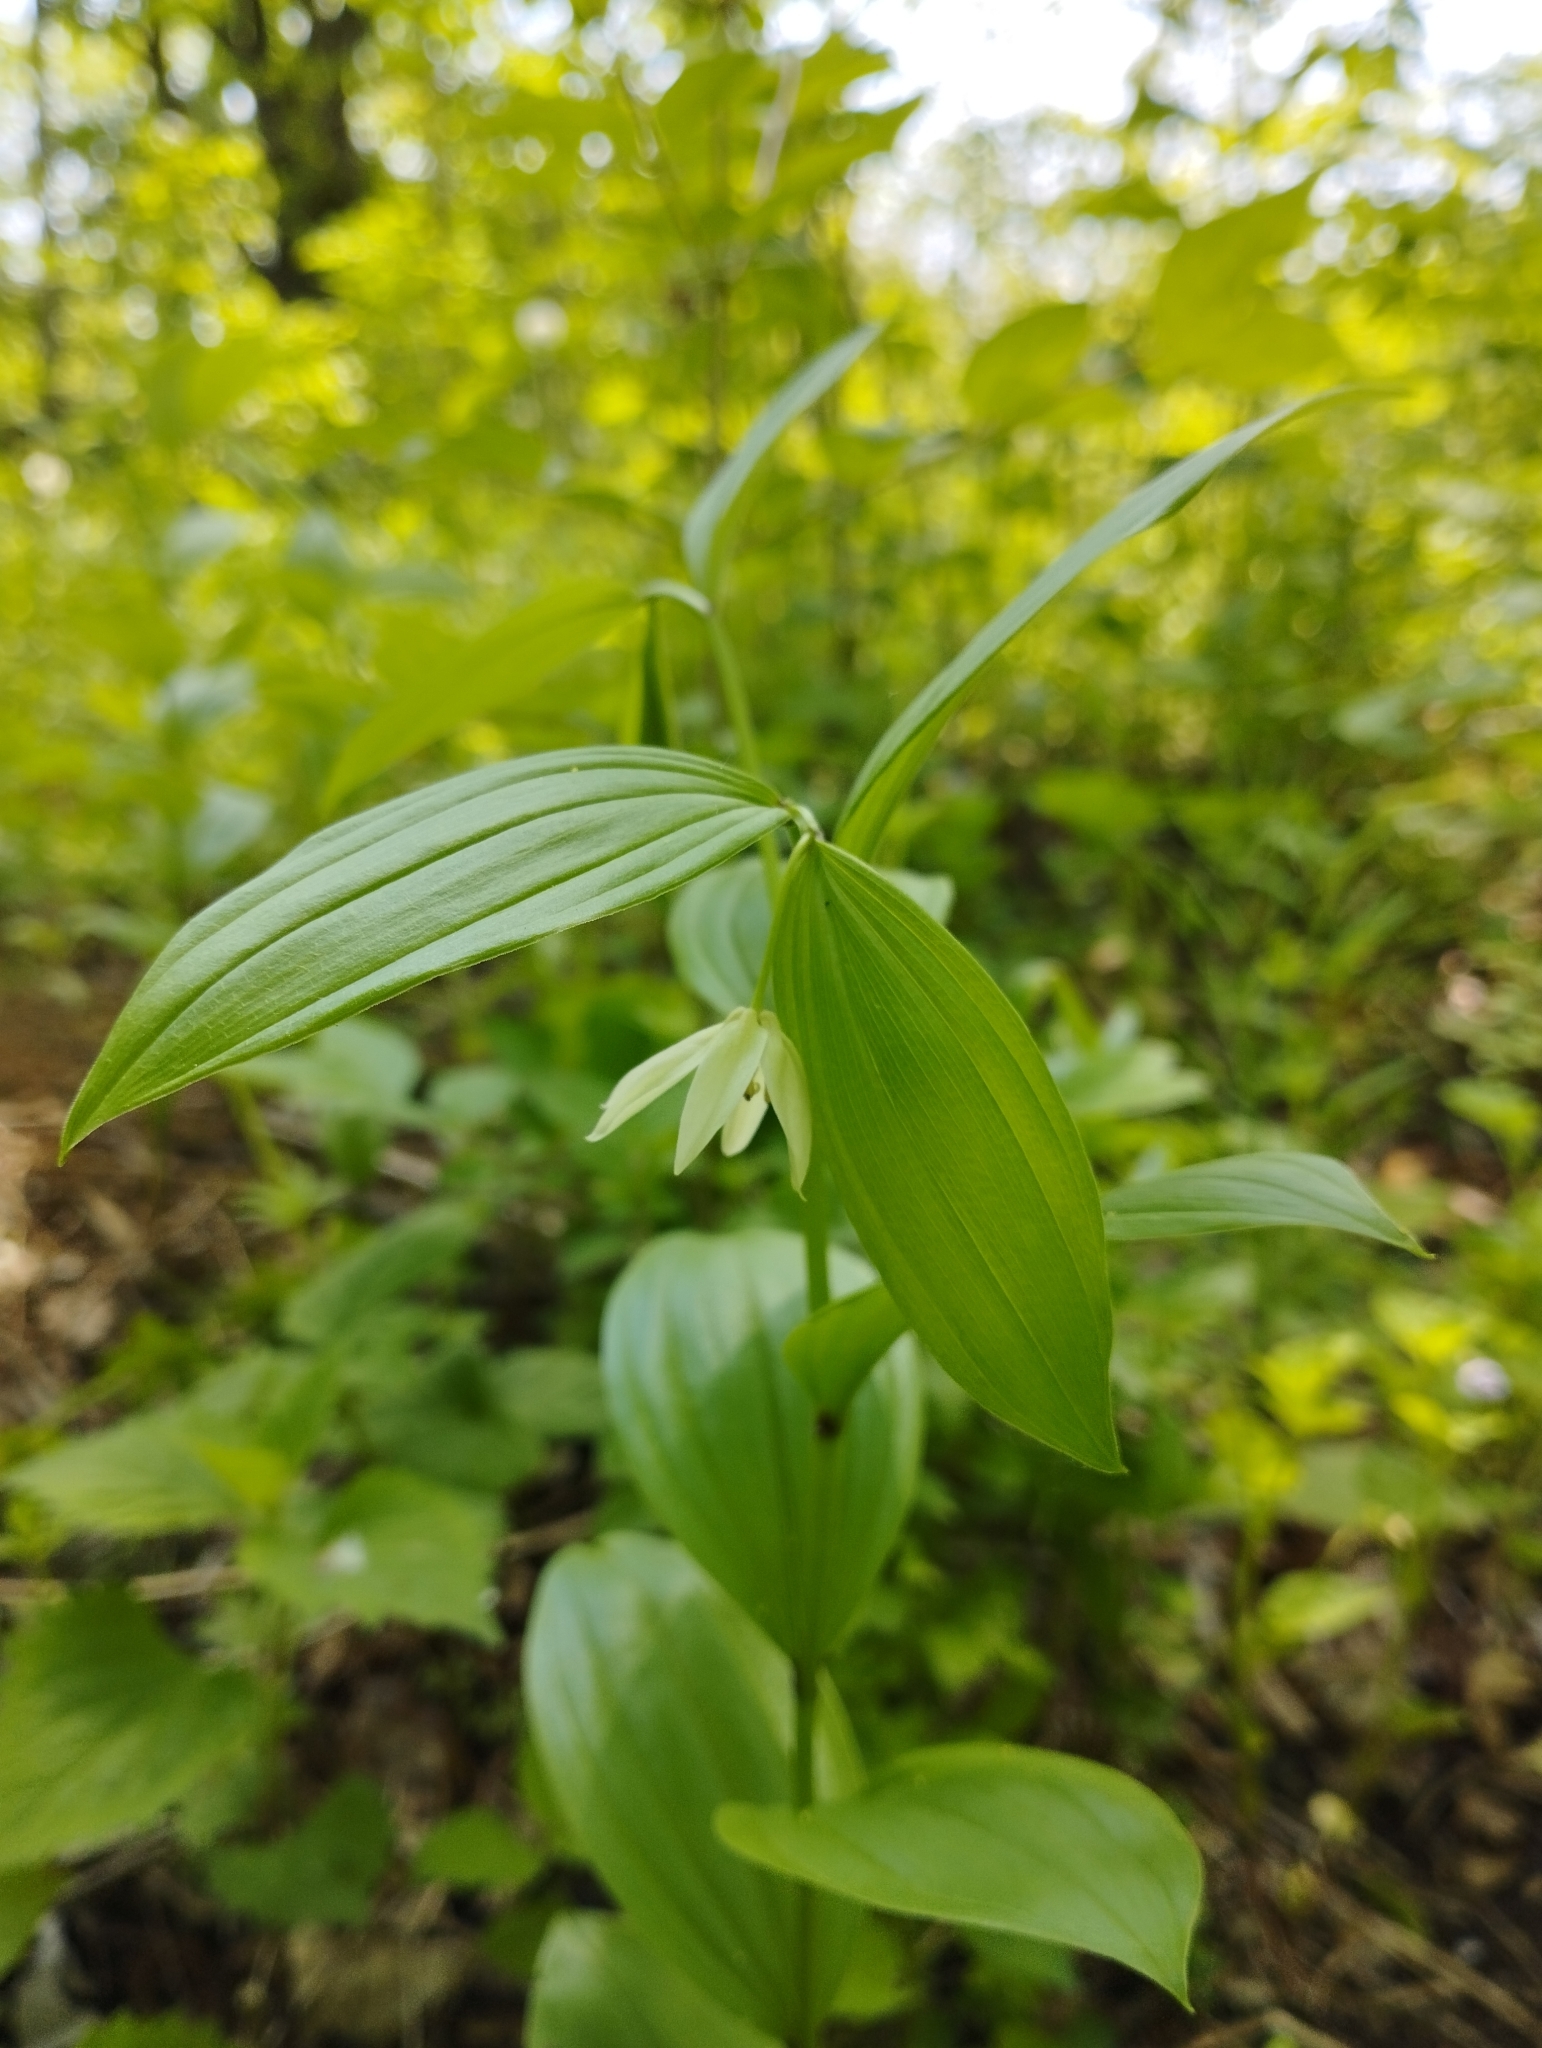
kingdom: Plantae
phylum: Tracheophyta
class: Liliopsida
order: Liliales
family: Colchicaceae
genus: Disporum
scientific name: Disporum viridescens
